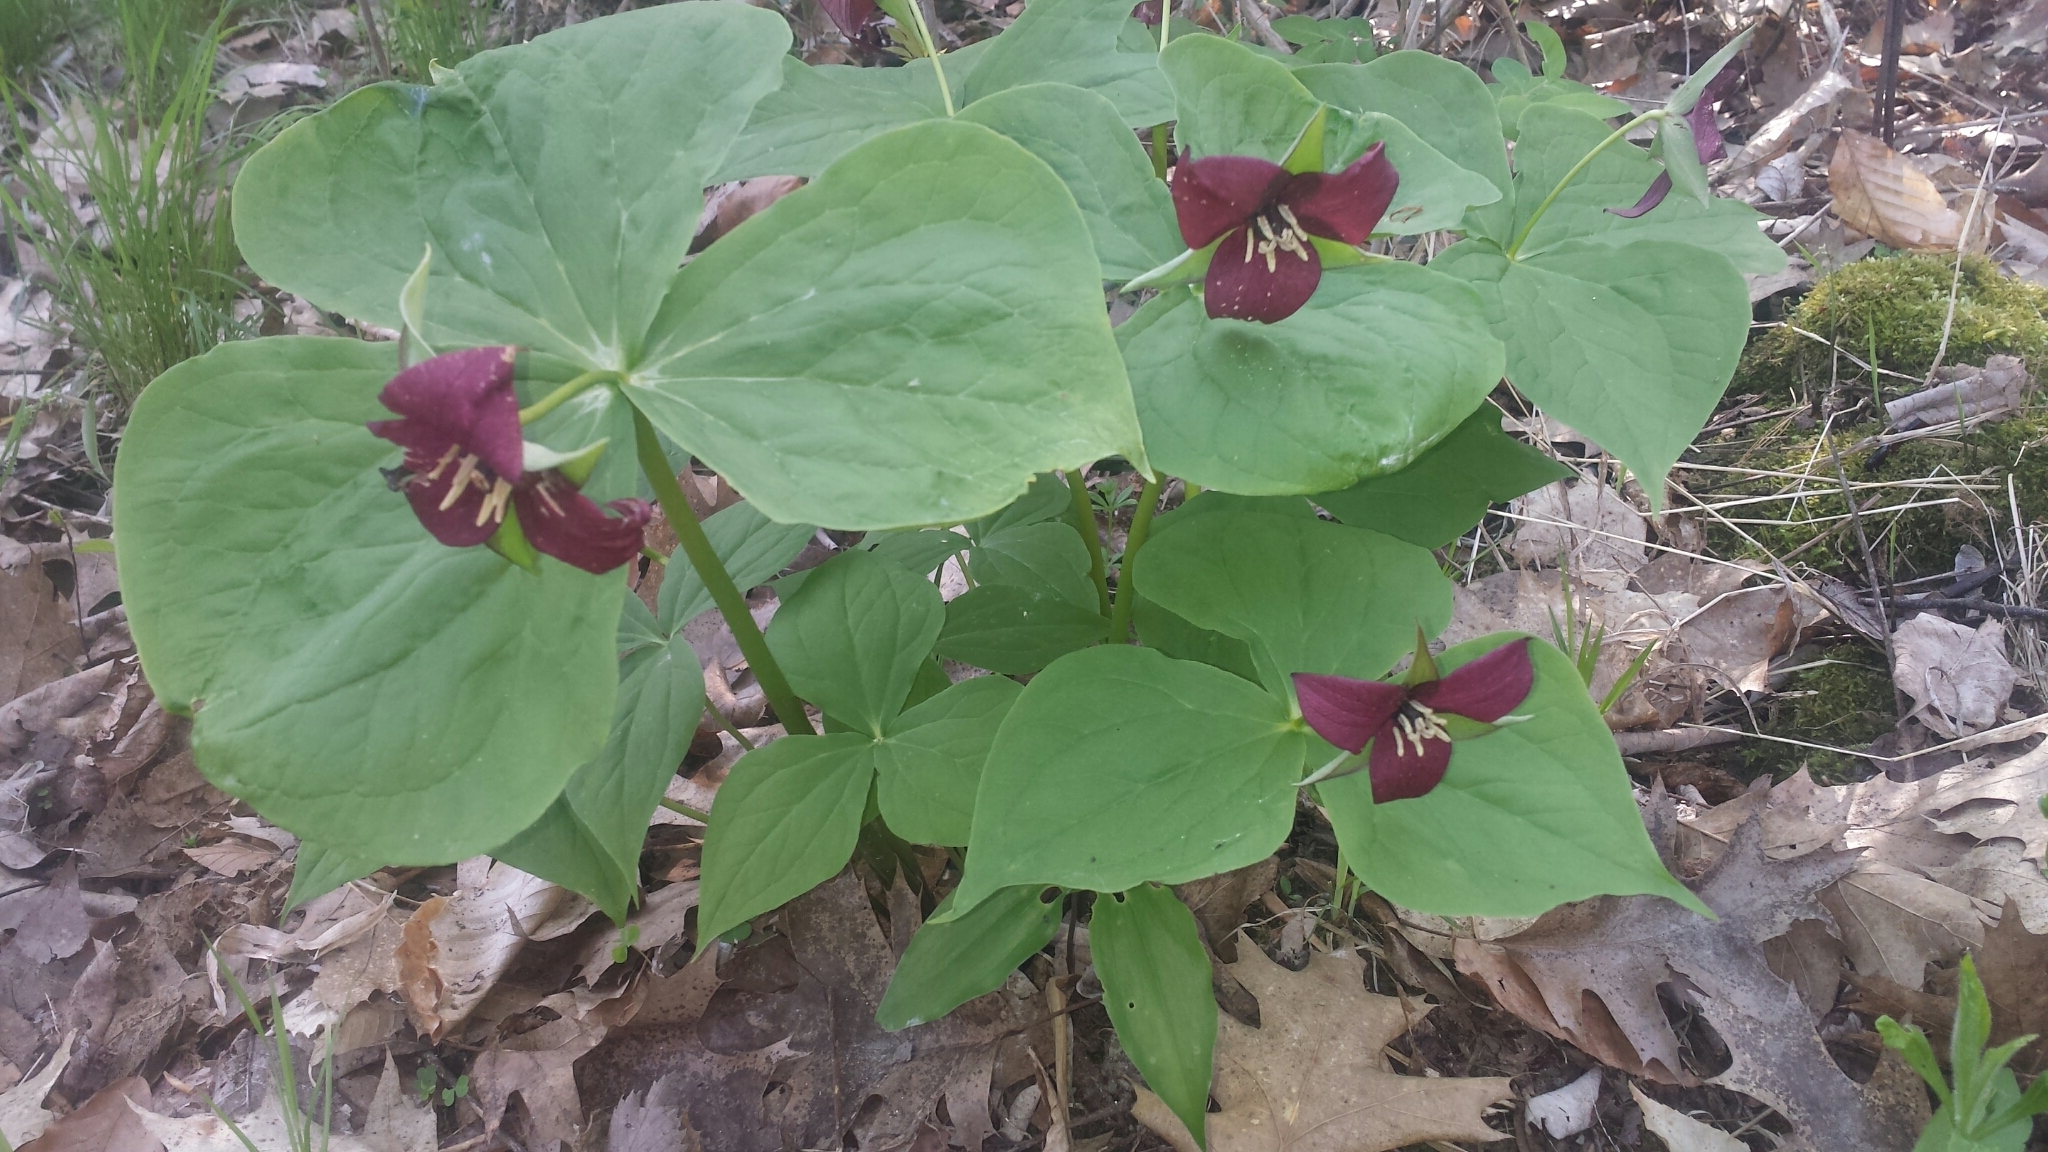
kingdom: Plantae
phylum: Tracheophyta
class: Liliopsida
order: Liliales
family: Melanthiaceae
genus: Trillium
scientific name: Trillium erectum
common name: Purple trillium
